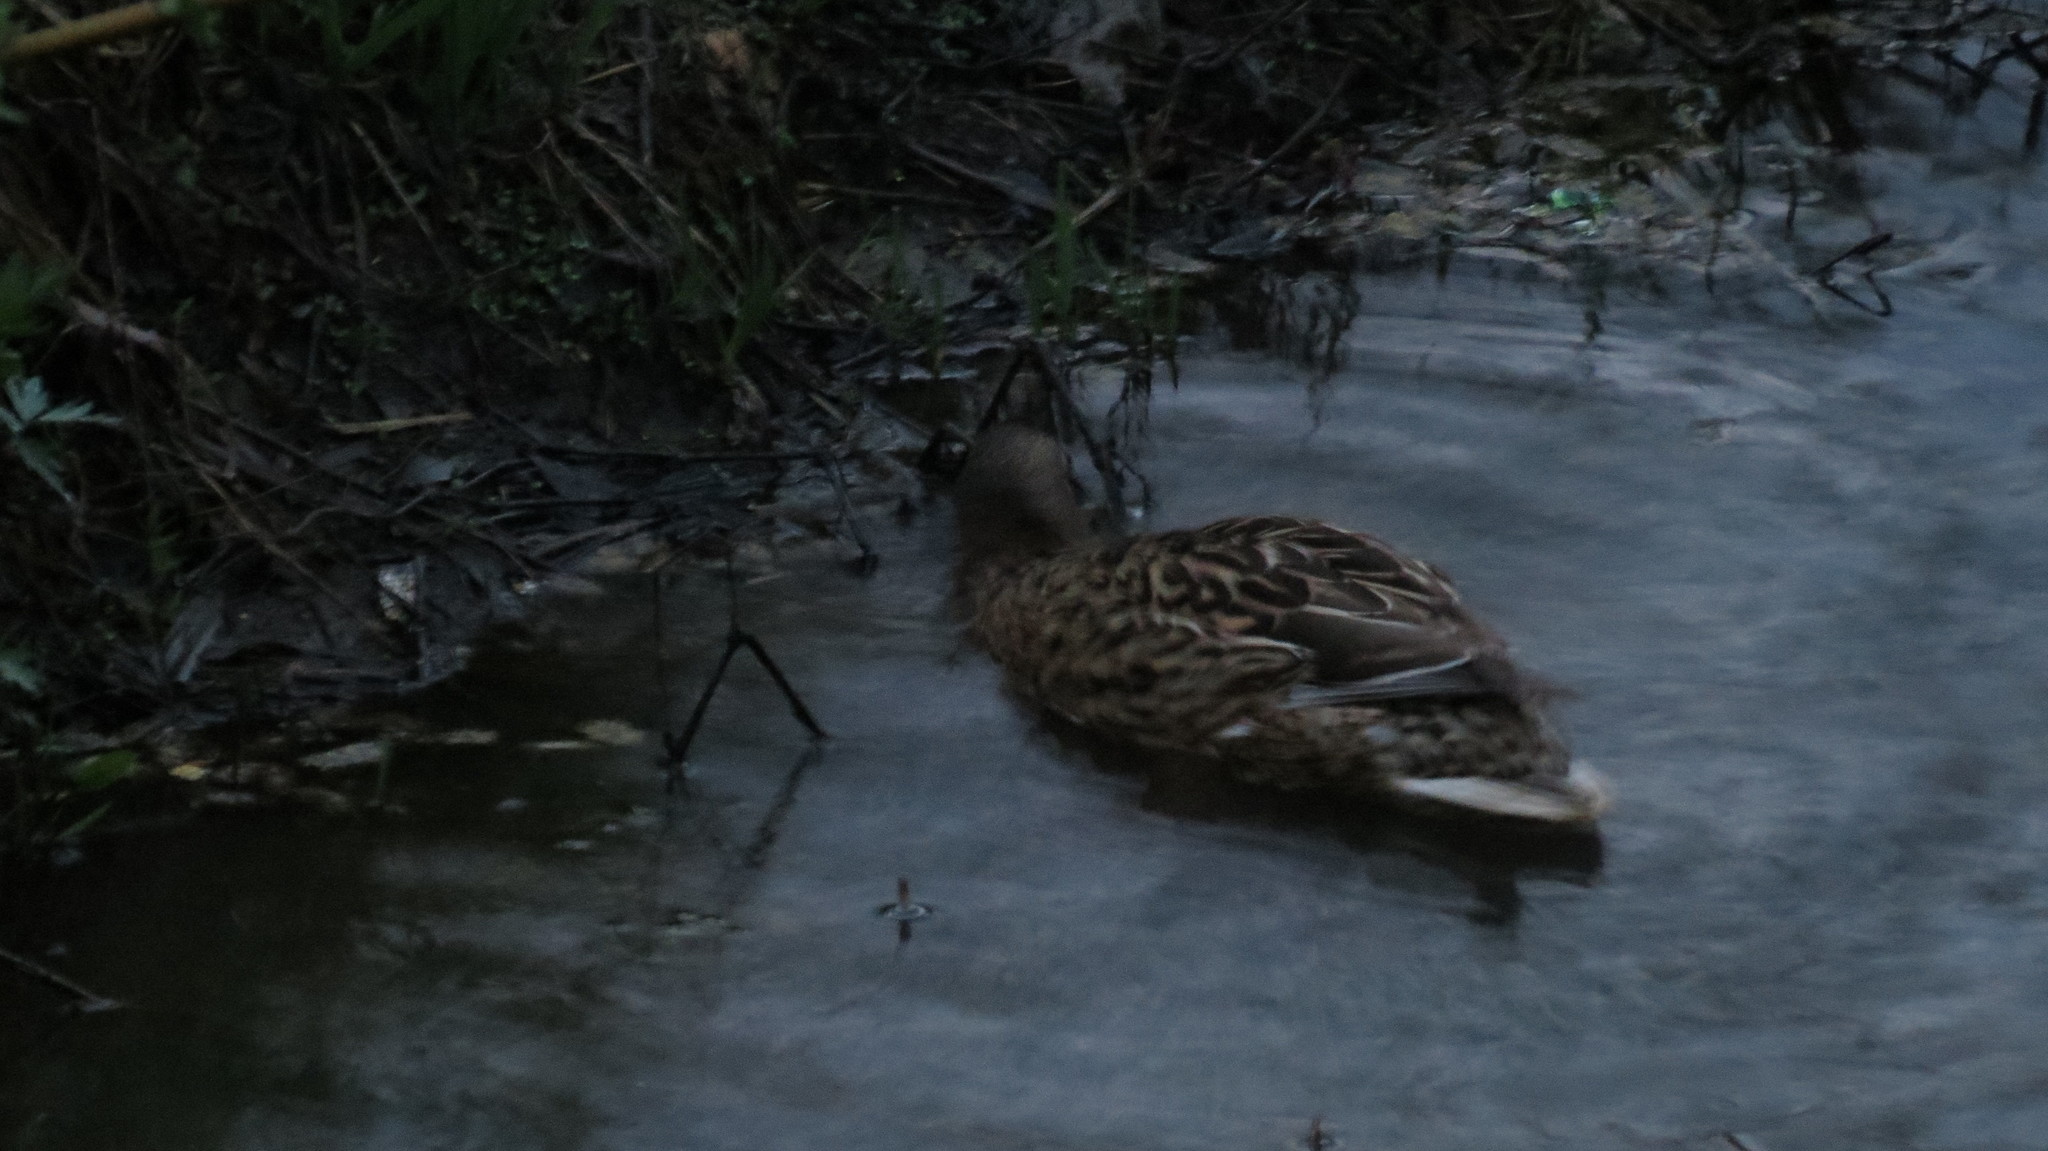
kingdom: Animalia
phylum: Chordata
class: Aves
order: Anseriformes
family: Anatidae
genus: Anas
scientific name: Anas platyrhynchos
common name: Mallard
